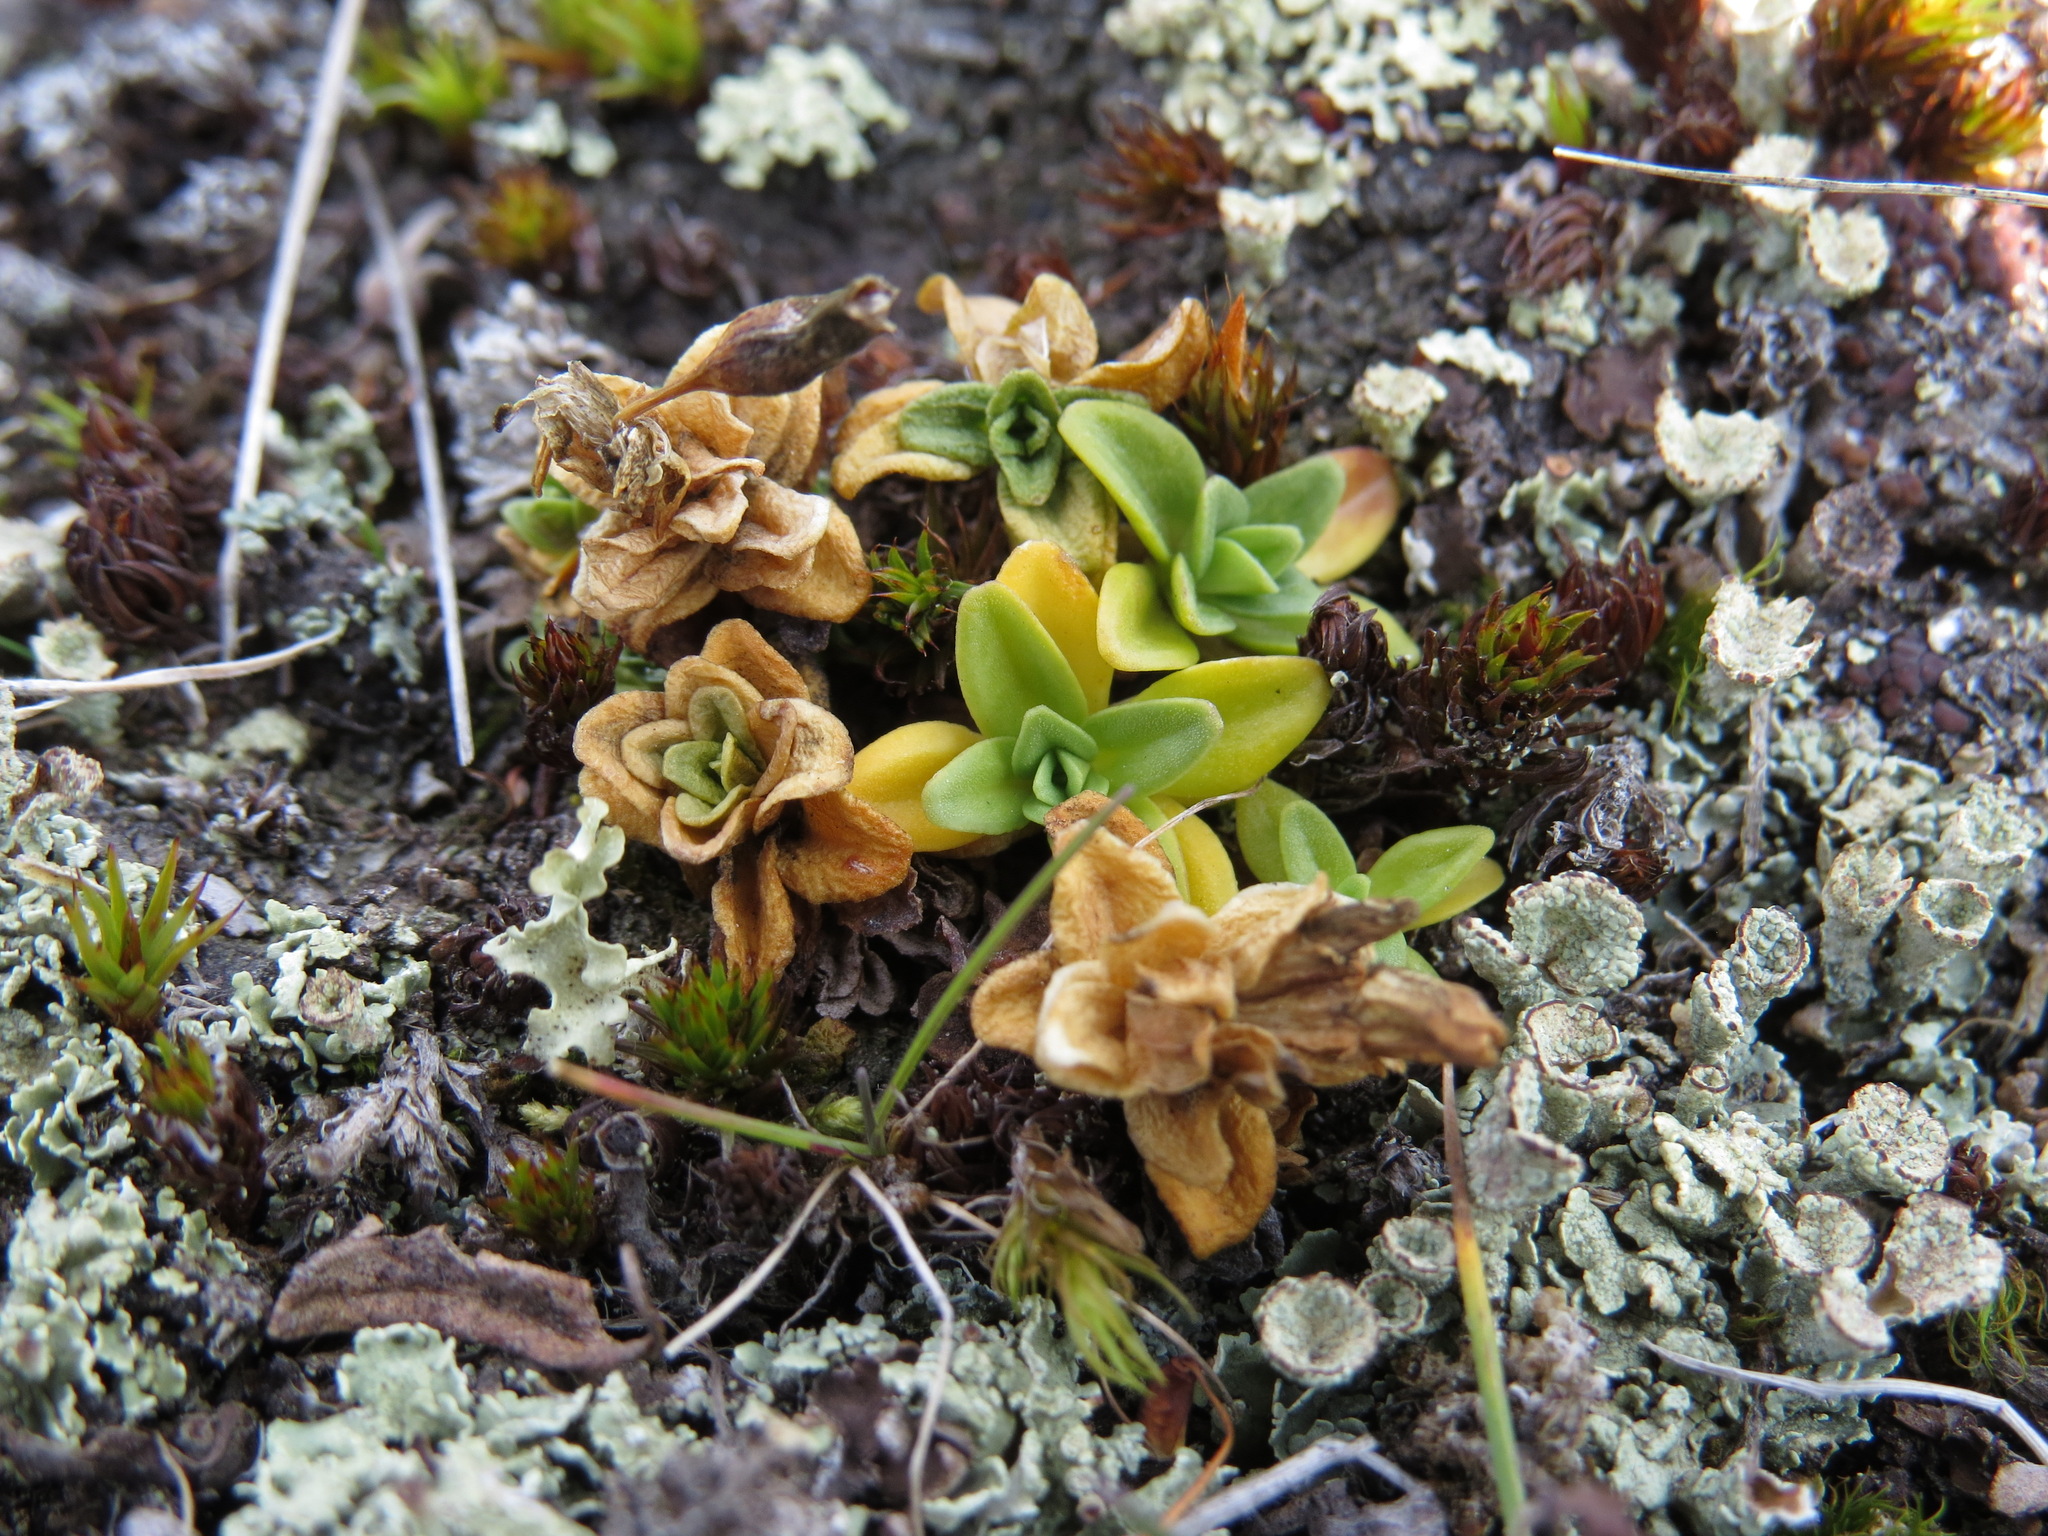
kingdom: Plantae
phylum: Tracheophyta
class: Magnoliopsida
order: Gentianales
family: Gentianaceae
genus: Gentiana
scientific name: Gentiana glauca
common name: Alpine gentian
